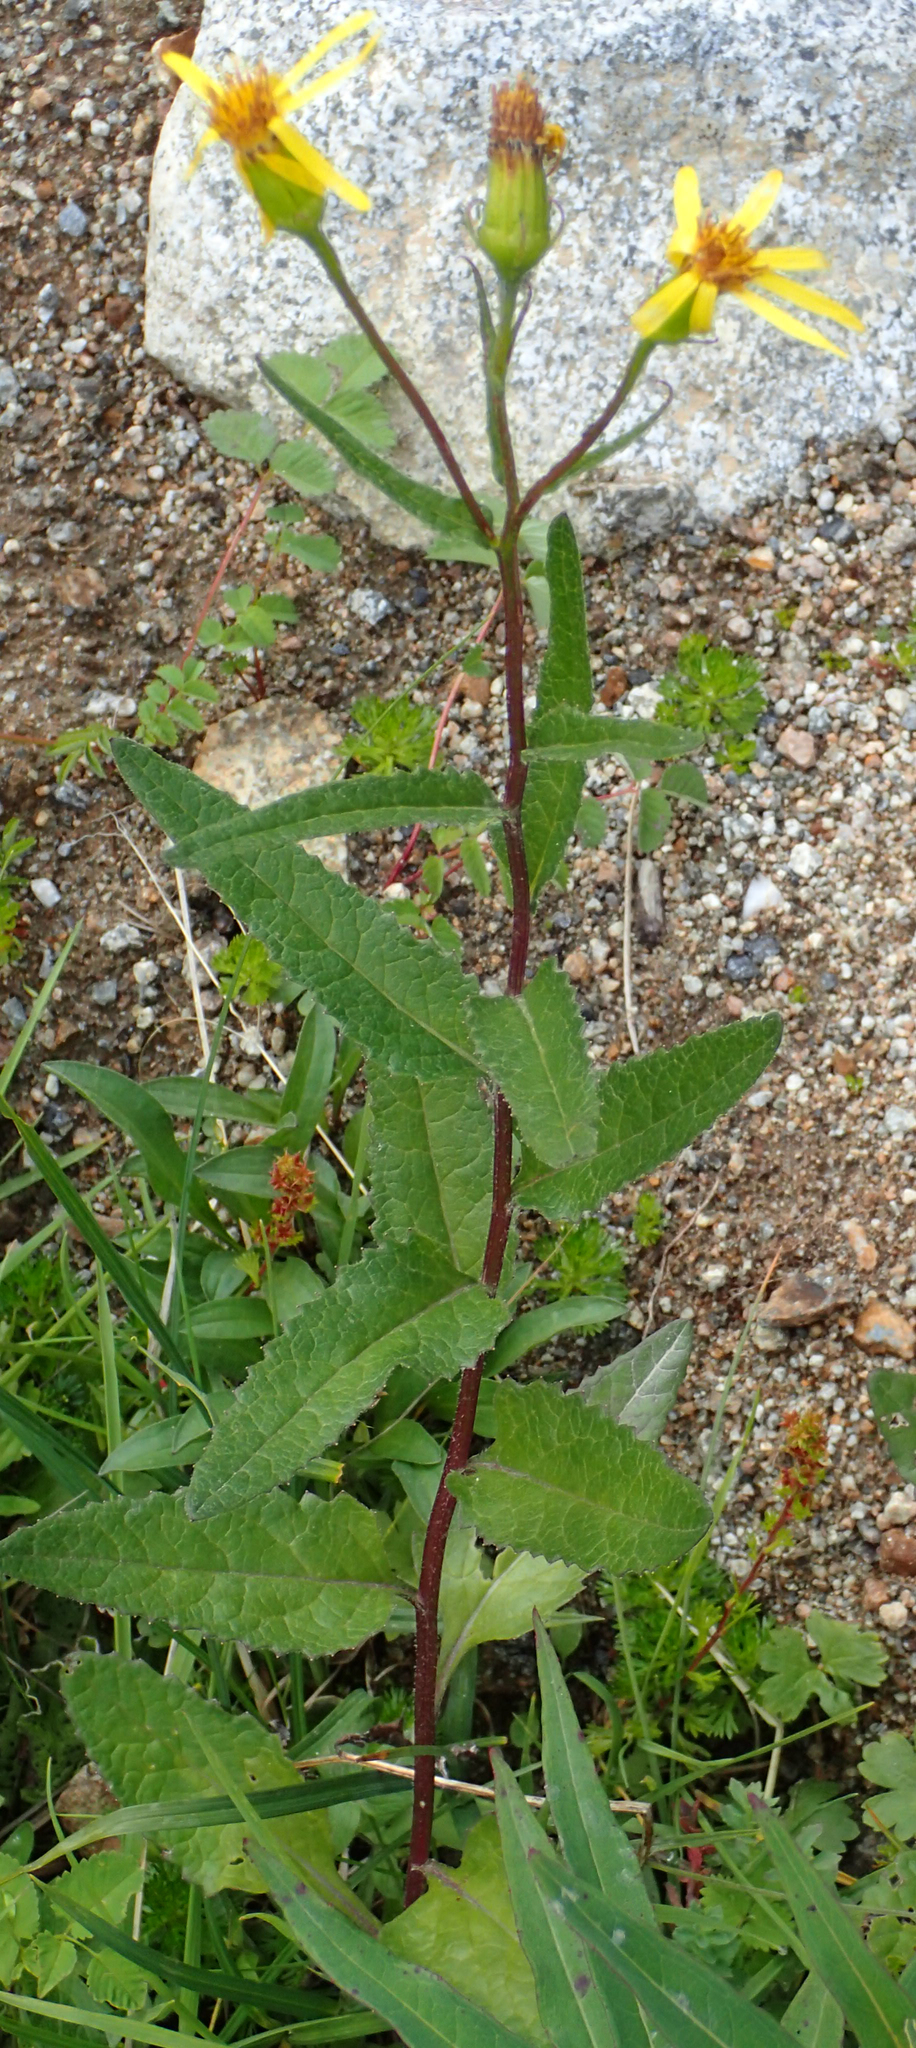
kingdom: Plantae
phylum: Tracheophyta
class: Magnoliopsida
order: Asterales
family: Asteraceae
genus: Senecio
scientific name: Senecio triangularis
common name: Arrowleaf butterweed
